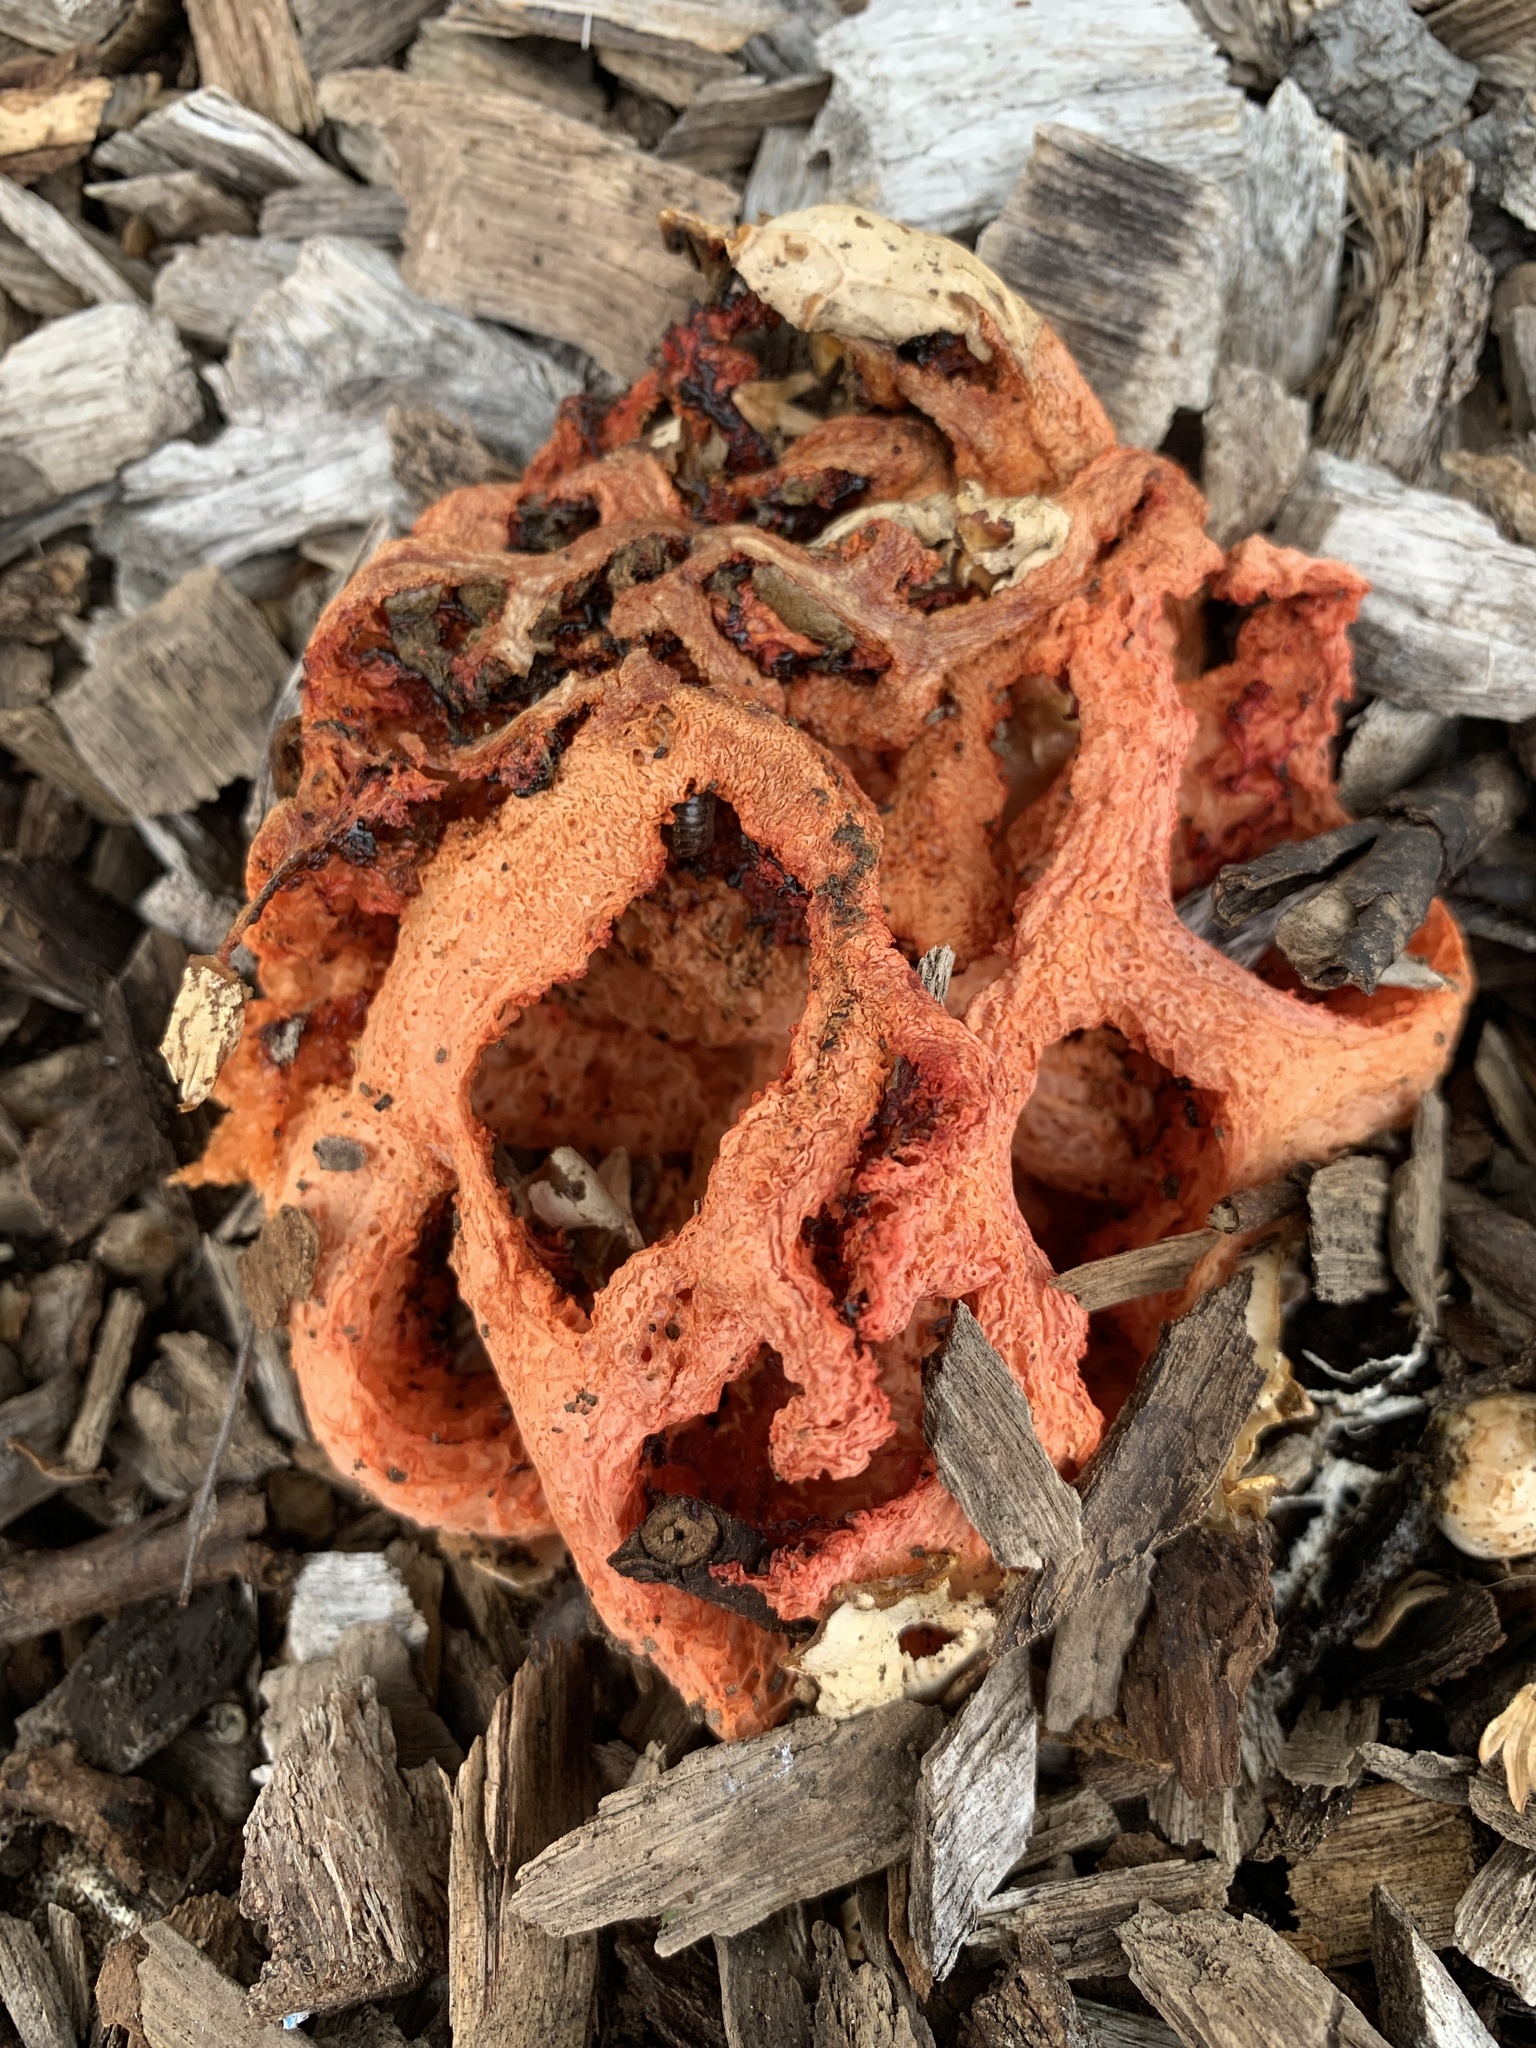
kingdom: Fungi
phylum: Basidiomycota
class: Agaricomycetes
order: Phallales
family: Phallaceae
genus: Clathrus
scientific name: Clathrus ruber
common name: Red cage
